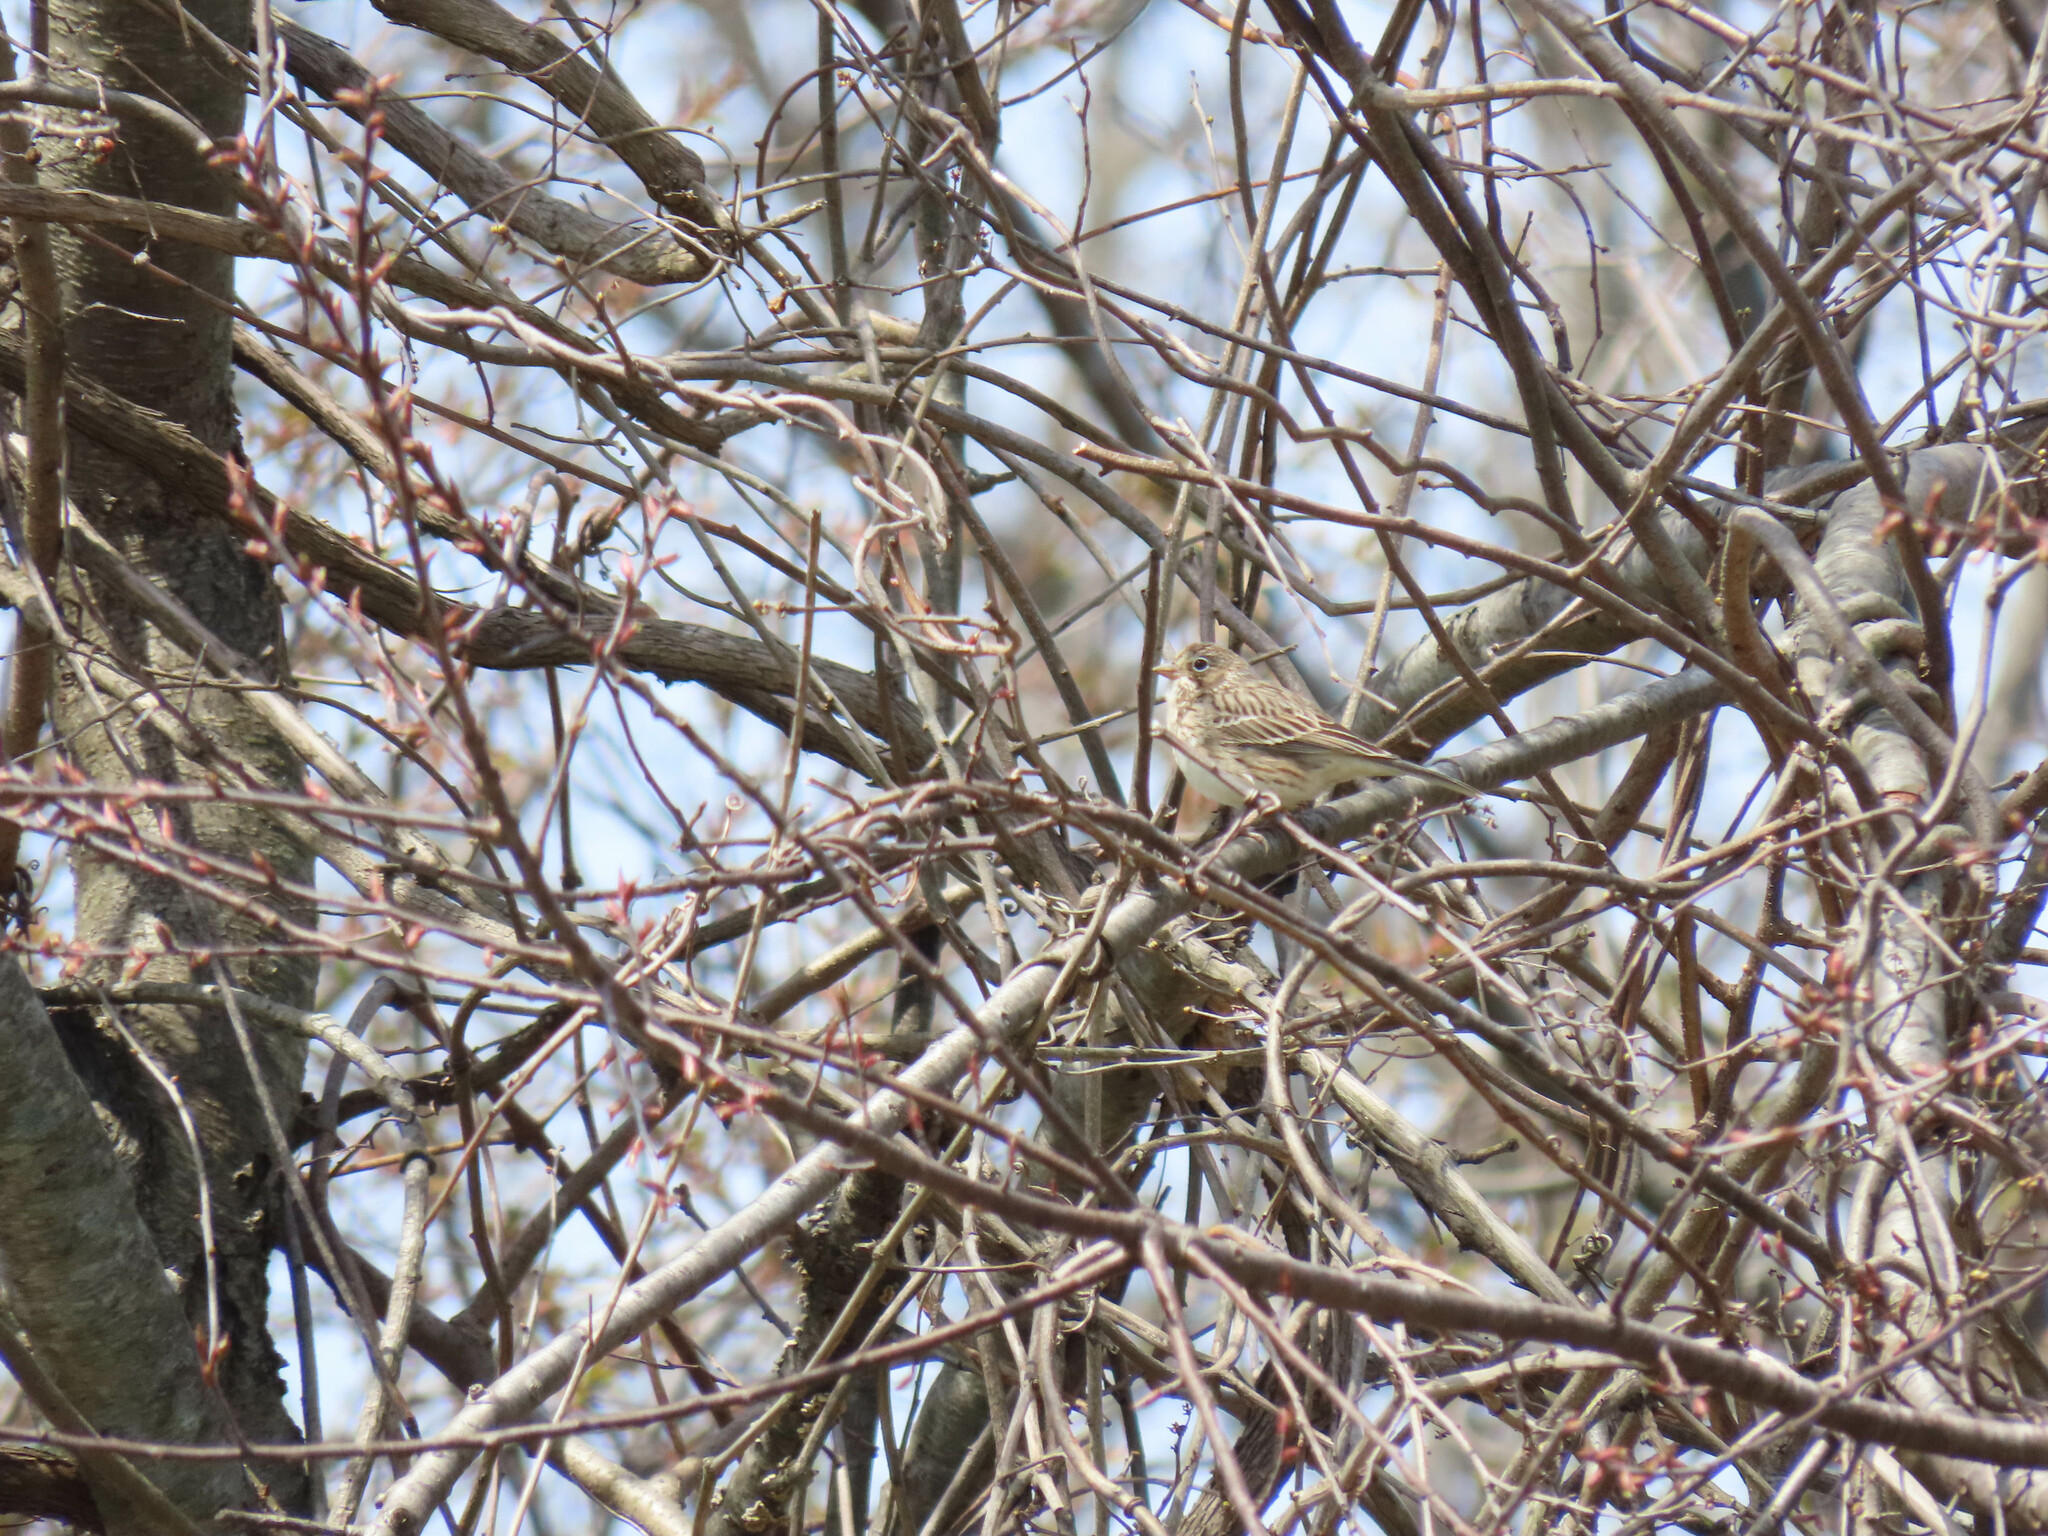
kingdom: Animalia
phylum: Chordata
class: Aves
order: Passeriformes
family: Passerellidae
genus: Pooecetes
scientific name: Pooecetes gramineus
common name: Vesper sparrow
